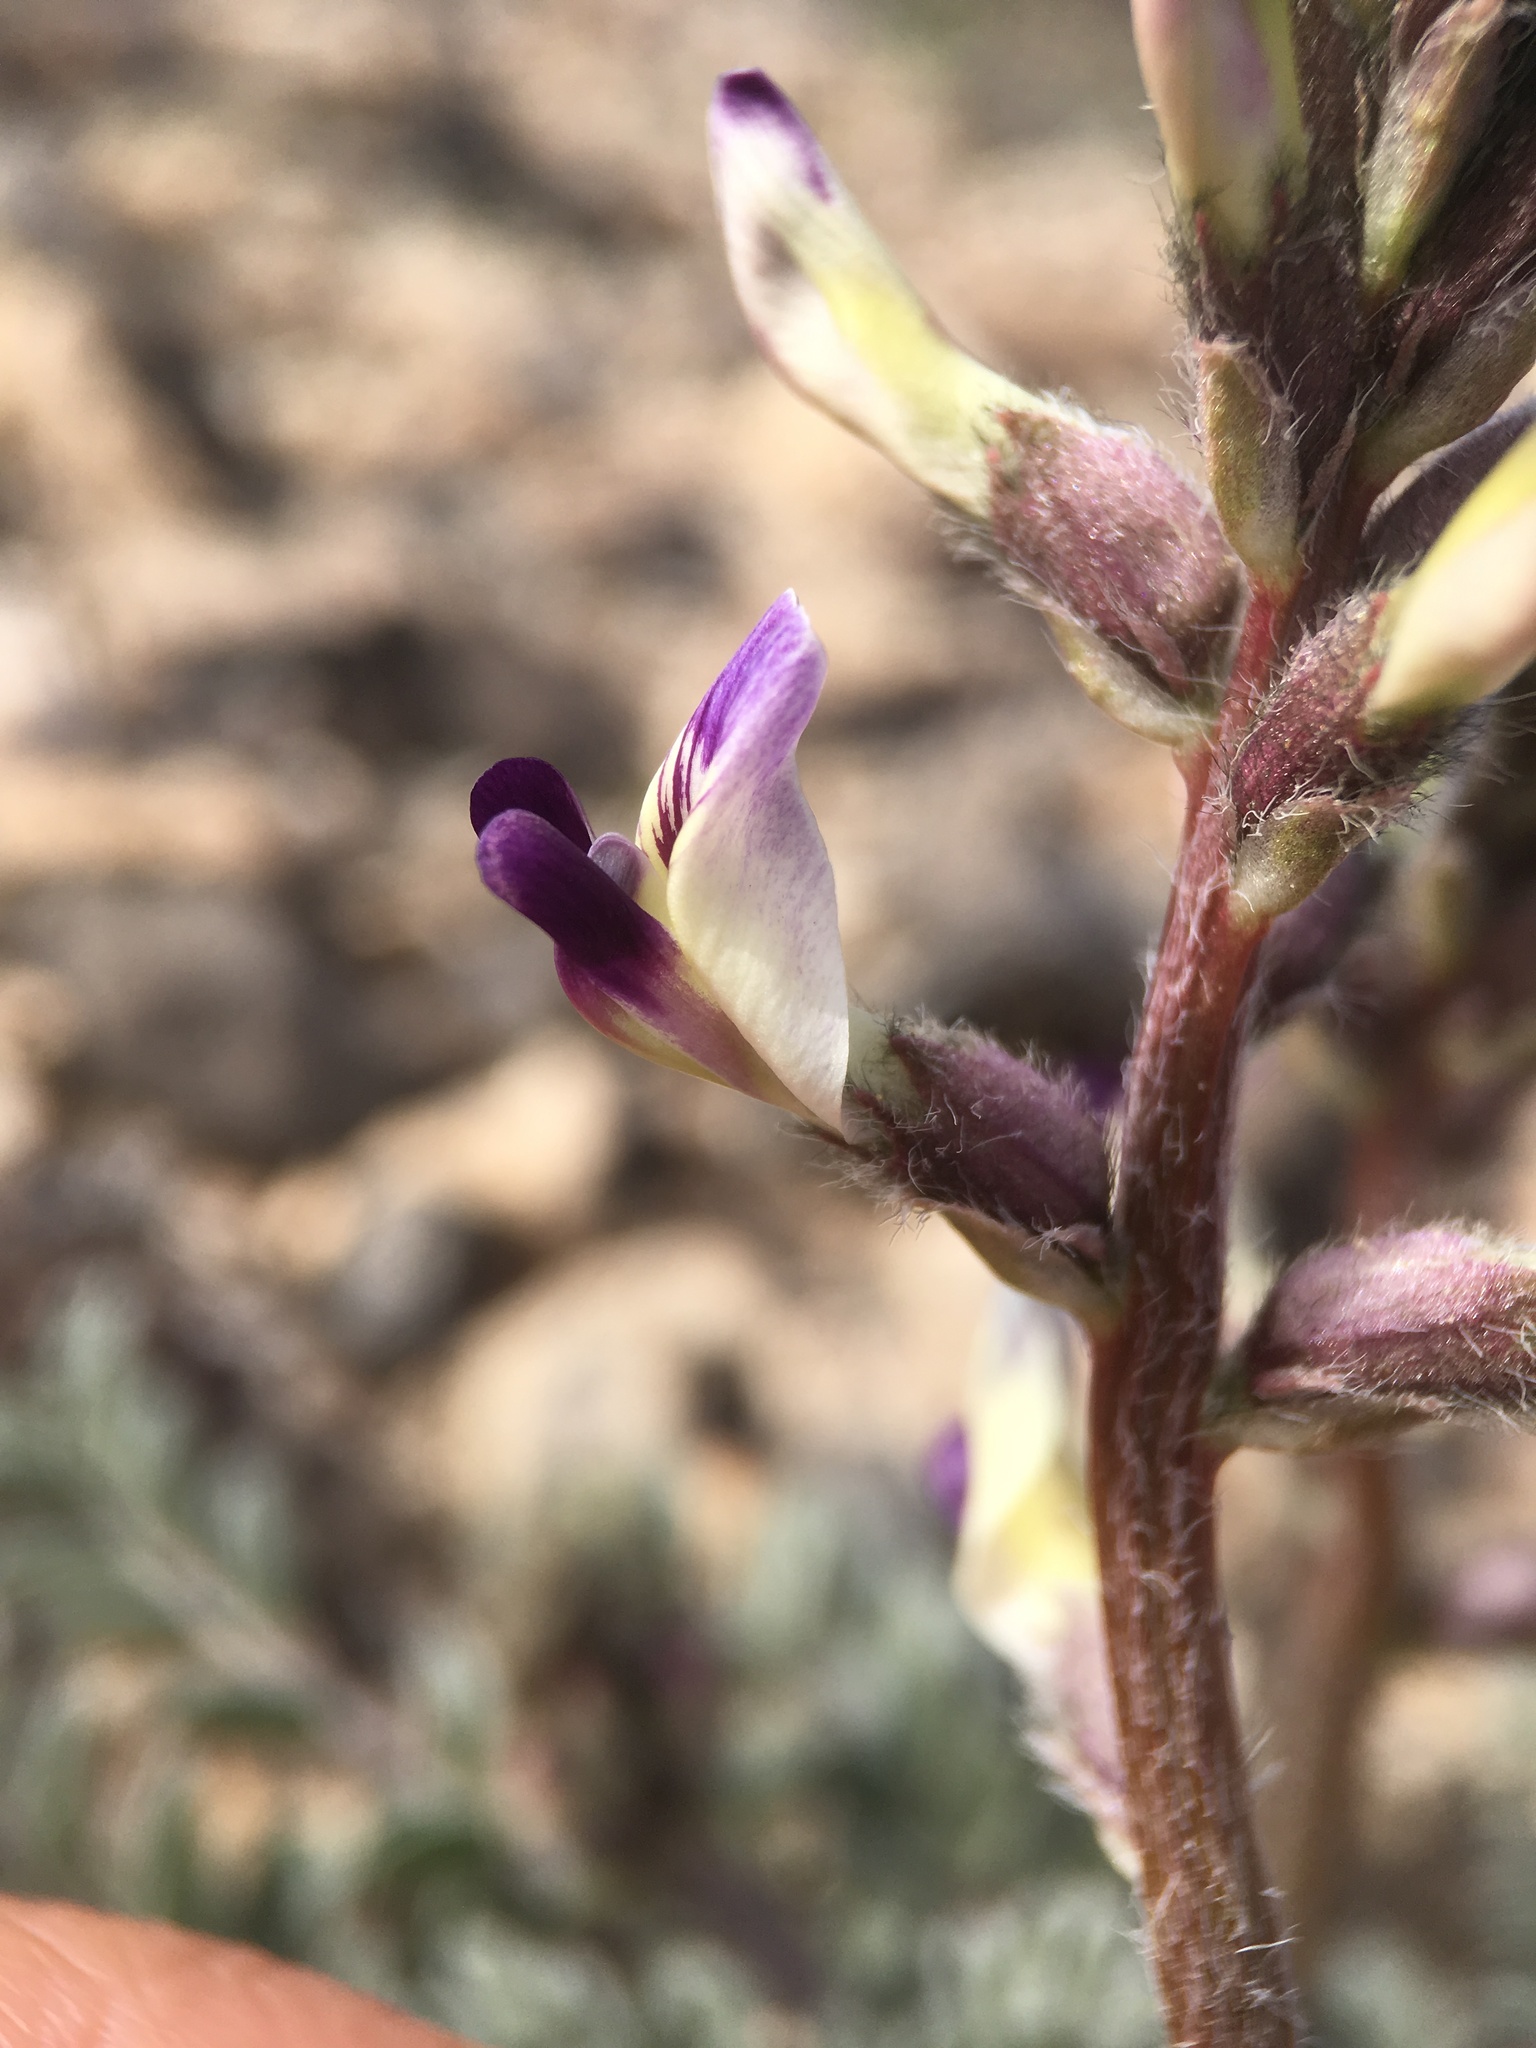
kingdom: Plantae
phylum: Tracheophyta
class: Magnoliopsida
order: Fabales
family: Fabaceae
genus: Astragalus
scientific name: Astragalus layneae
